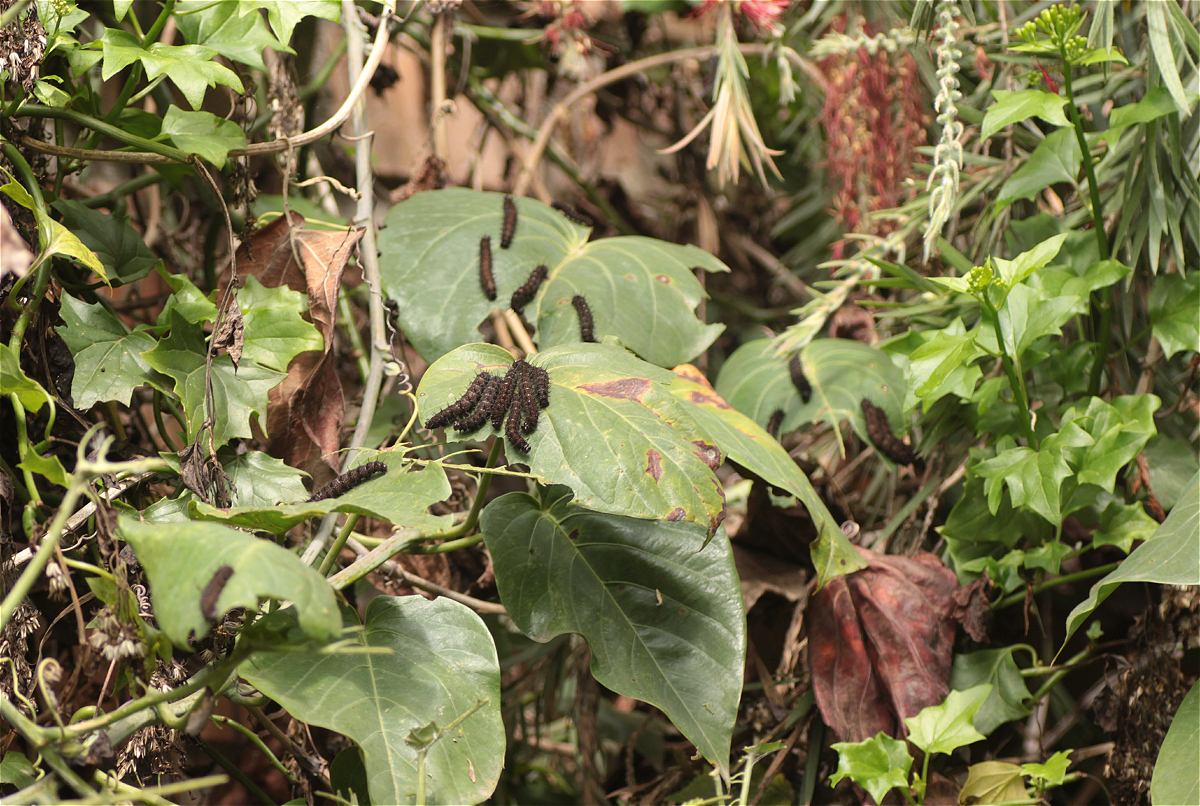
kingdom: Animalia
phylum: Arthropoda
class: Insecta
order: Lepidoptera
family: Nymphalidae
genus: Dione
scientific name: Dione juno
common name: Juno silverspot
